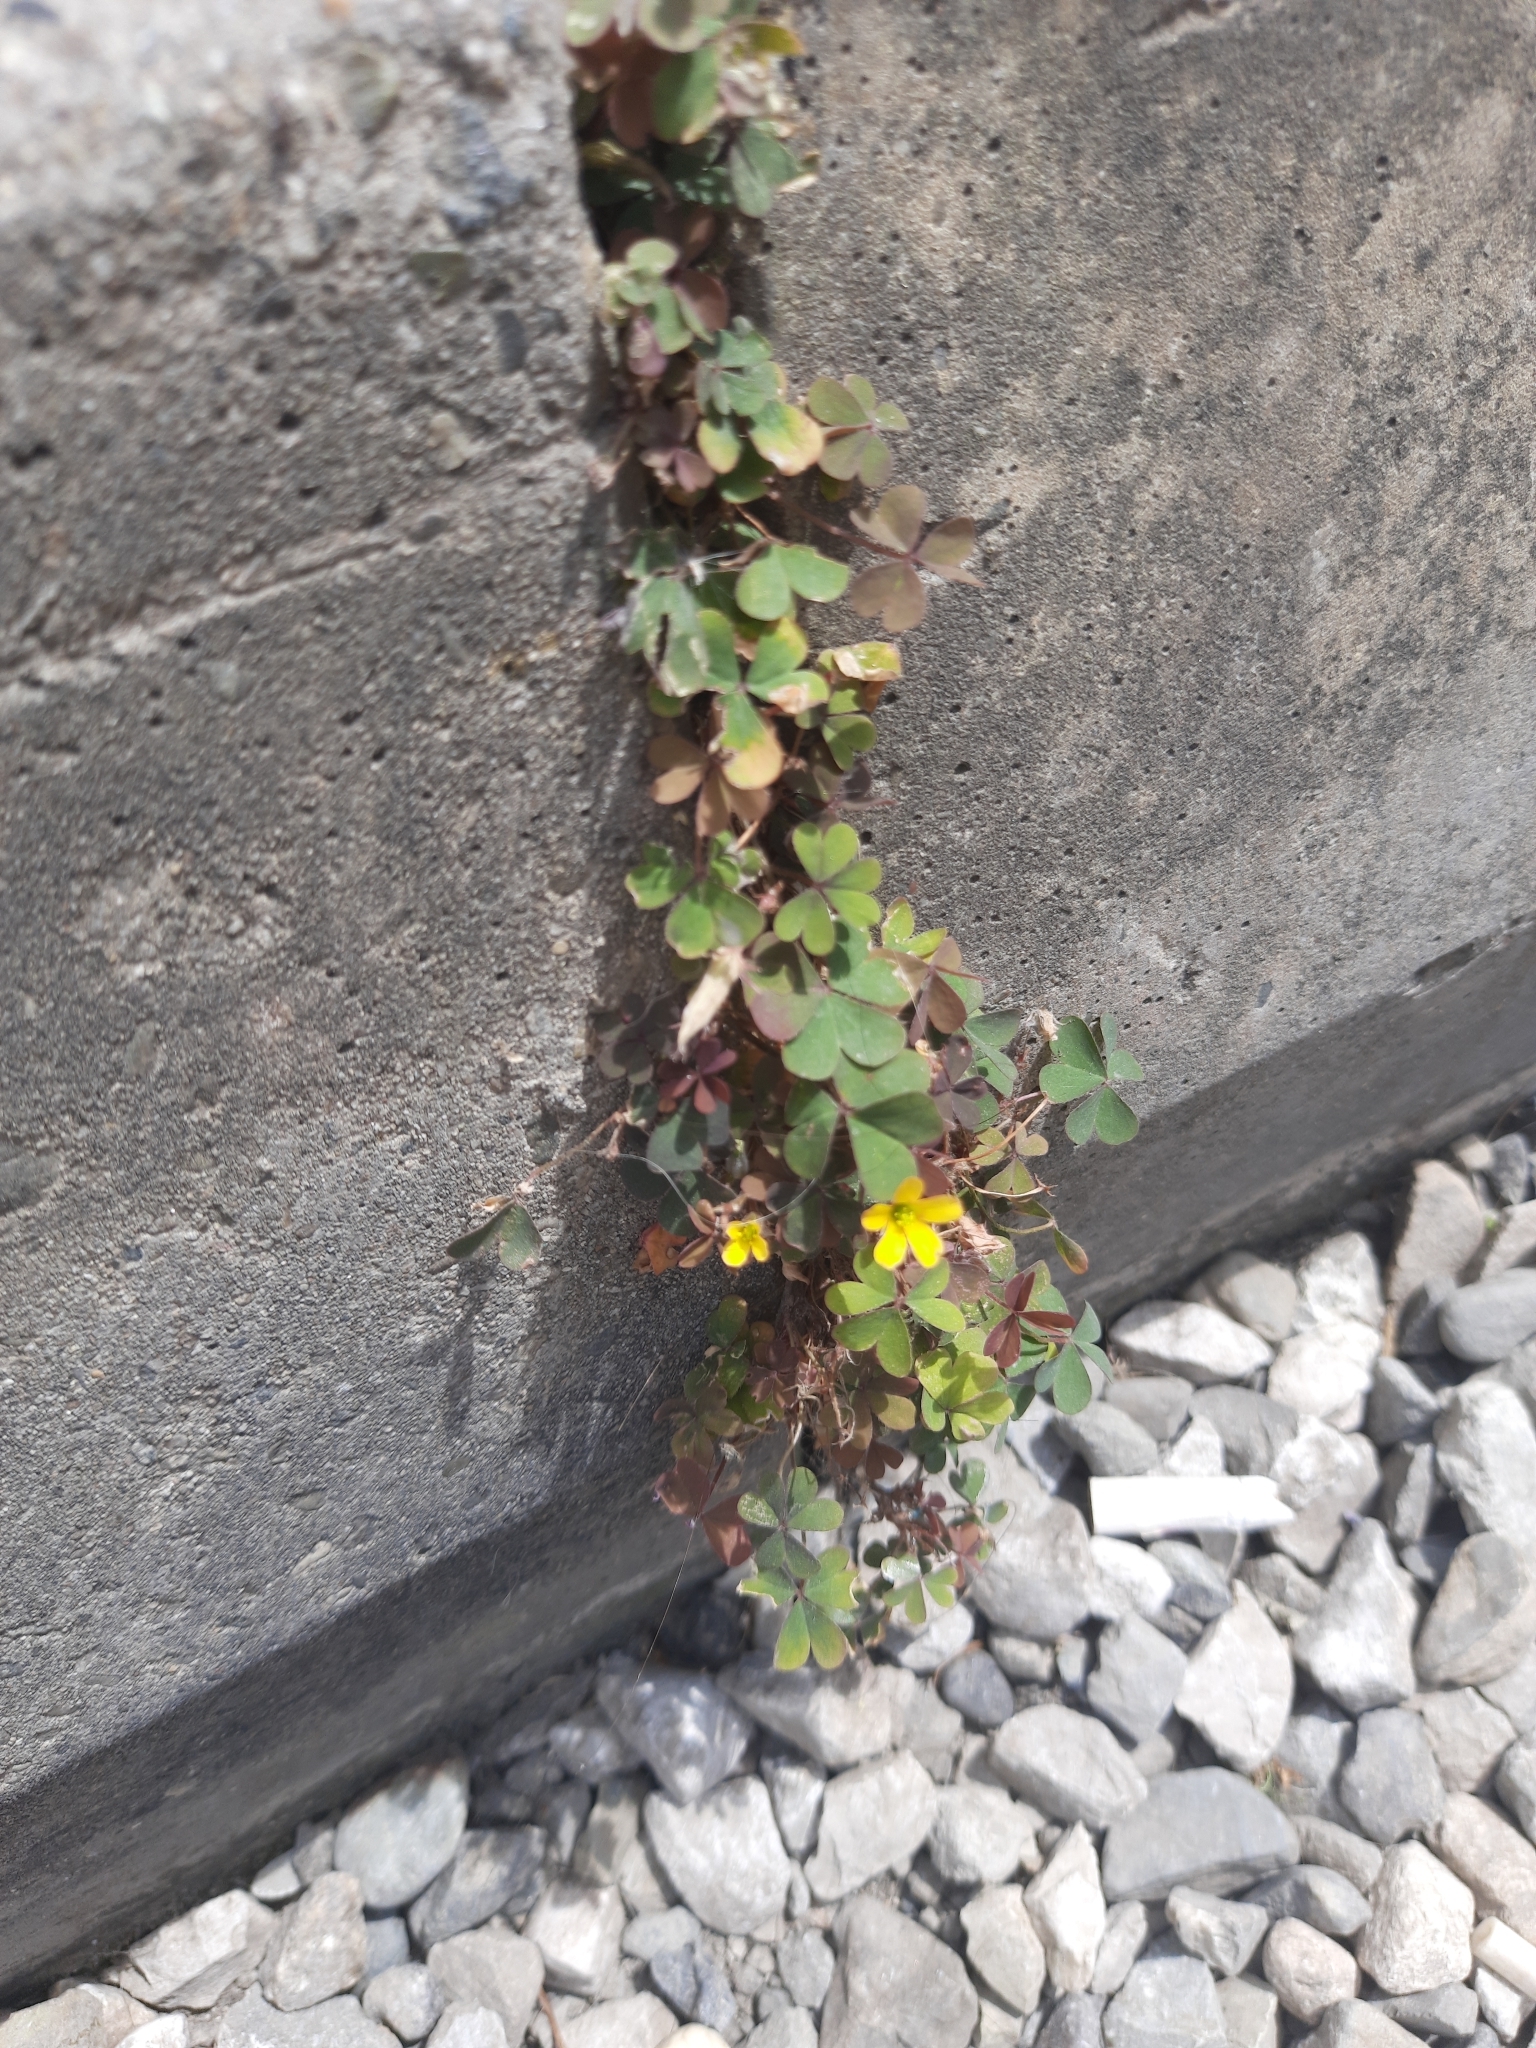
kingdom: Plantae
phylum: Tracheophyta
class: Magnoliopsida
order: Oxalidales
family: Oxalidaceae
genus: Oxalis
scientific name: Oxalis corniculata
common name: Procumbent yellow-sorrel
